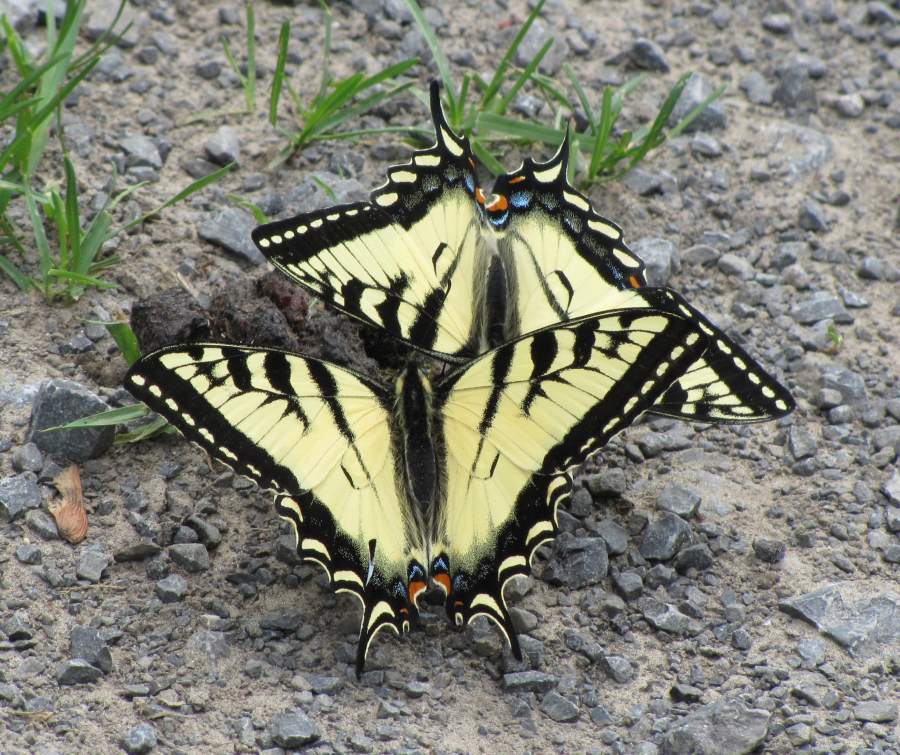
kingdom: Animalia
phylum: Arthropoda
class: Insecta
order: Lepidoptera
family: Papilionidae
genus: Papilio
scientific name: Papilio canadensis
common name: Canadian tiger swallowtail
